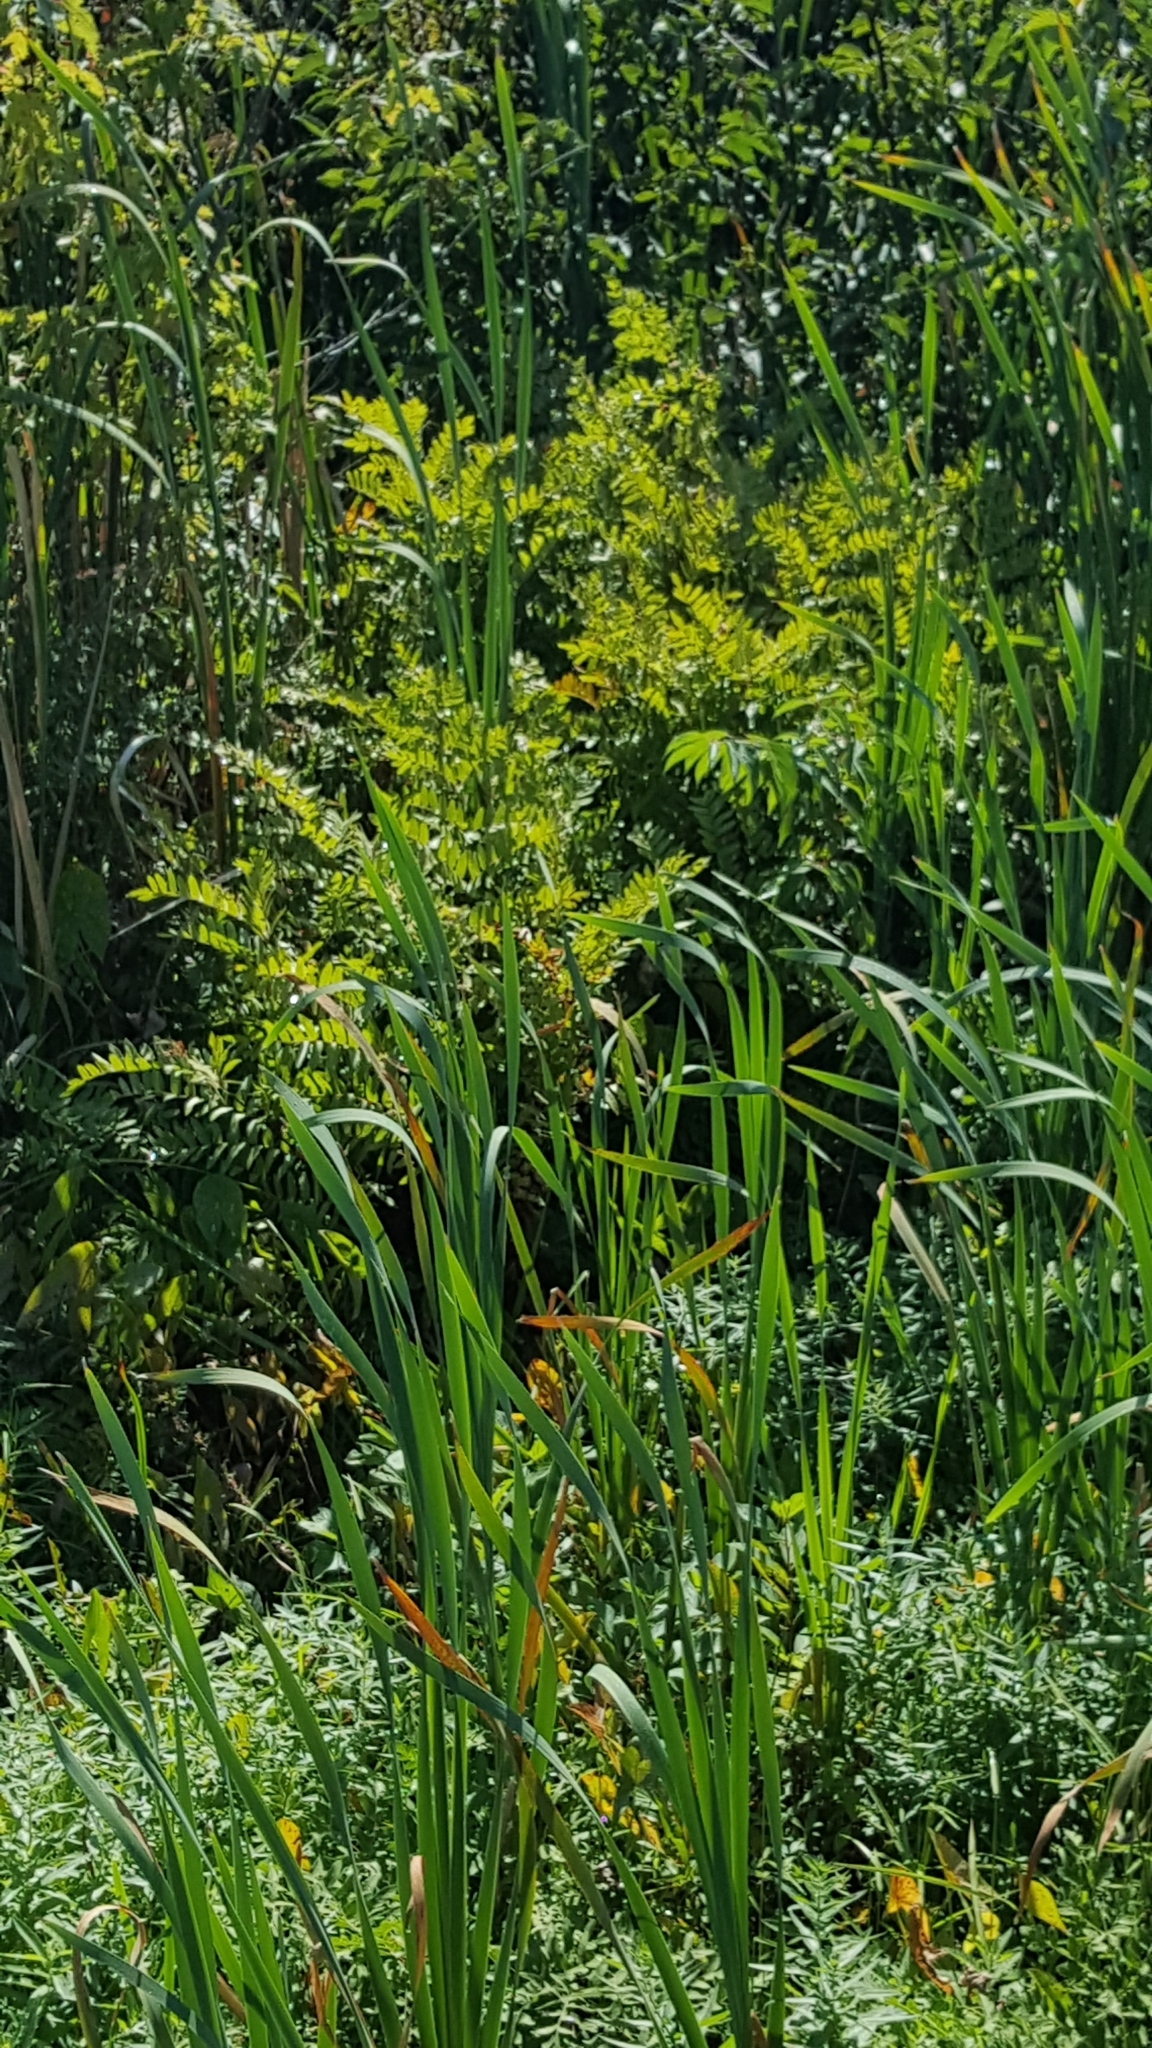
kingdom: Plantae
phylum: Tracheophyta
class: Polypodiopsida
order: Osmundales
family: Osmundaceae
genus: Osmunda
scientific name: Osmunda spectabilis
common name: American royal fern
